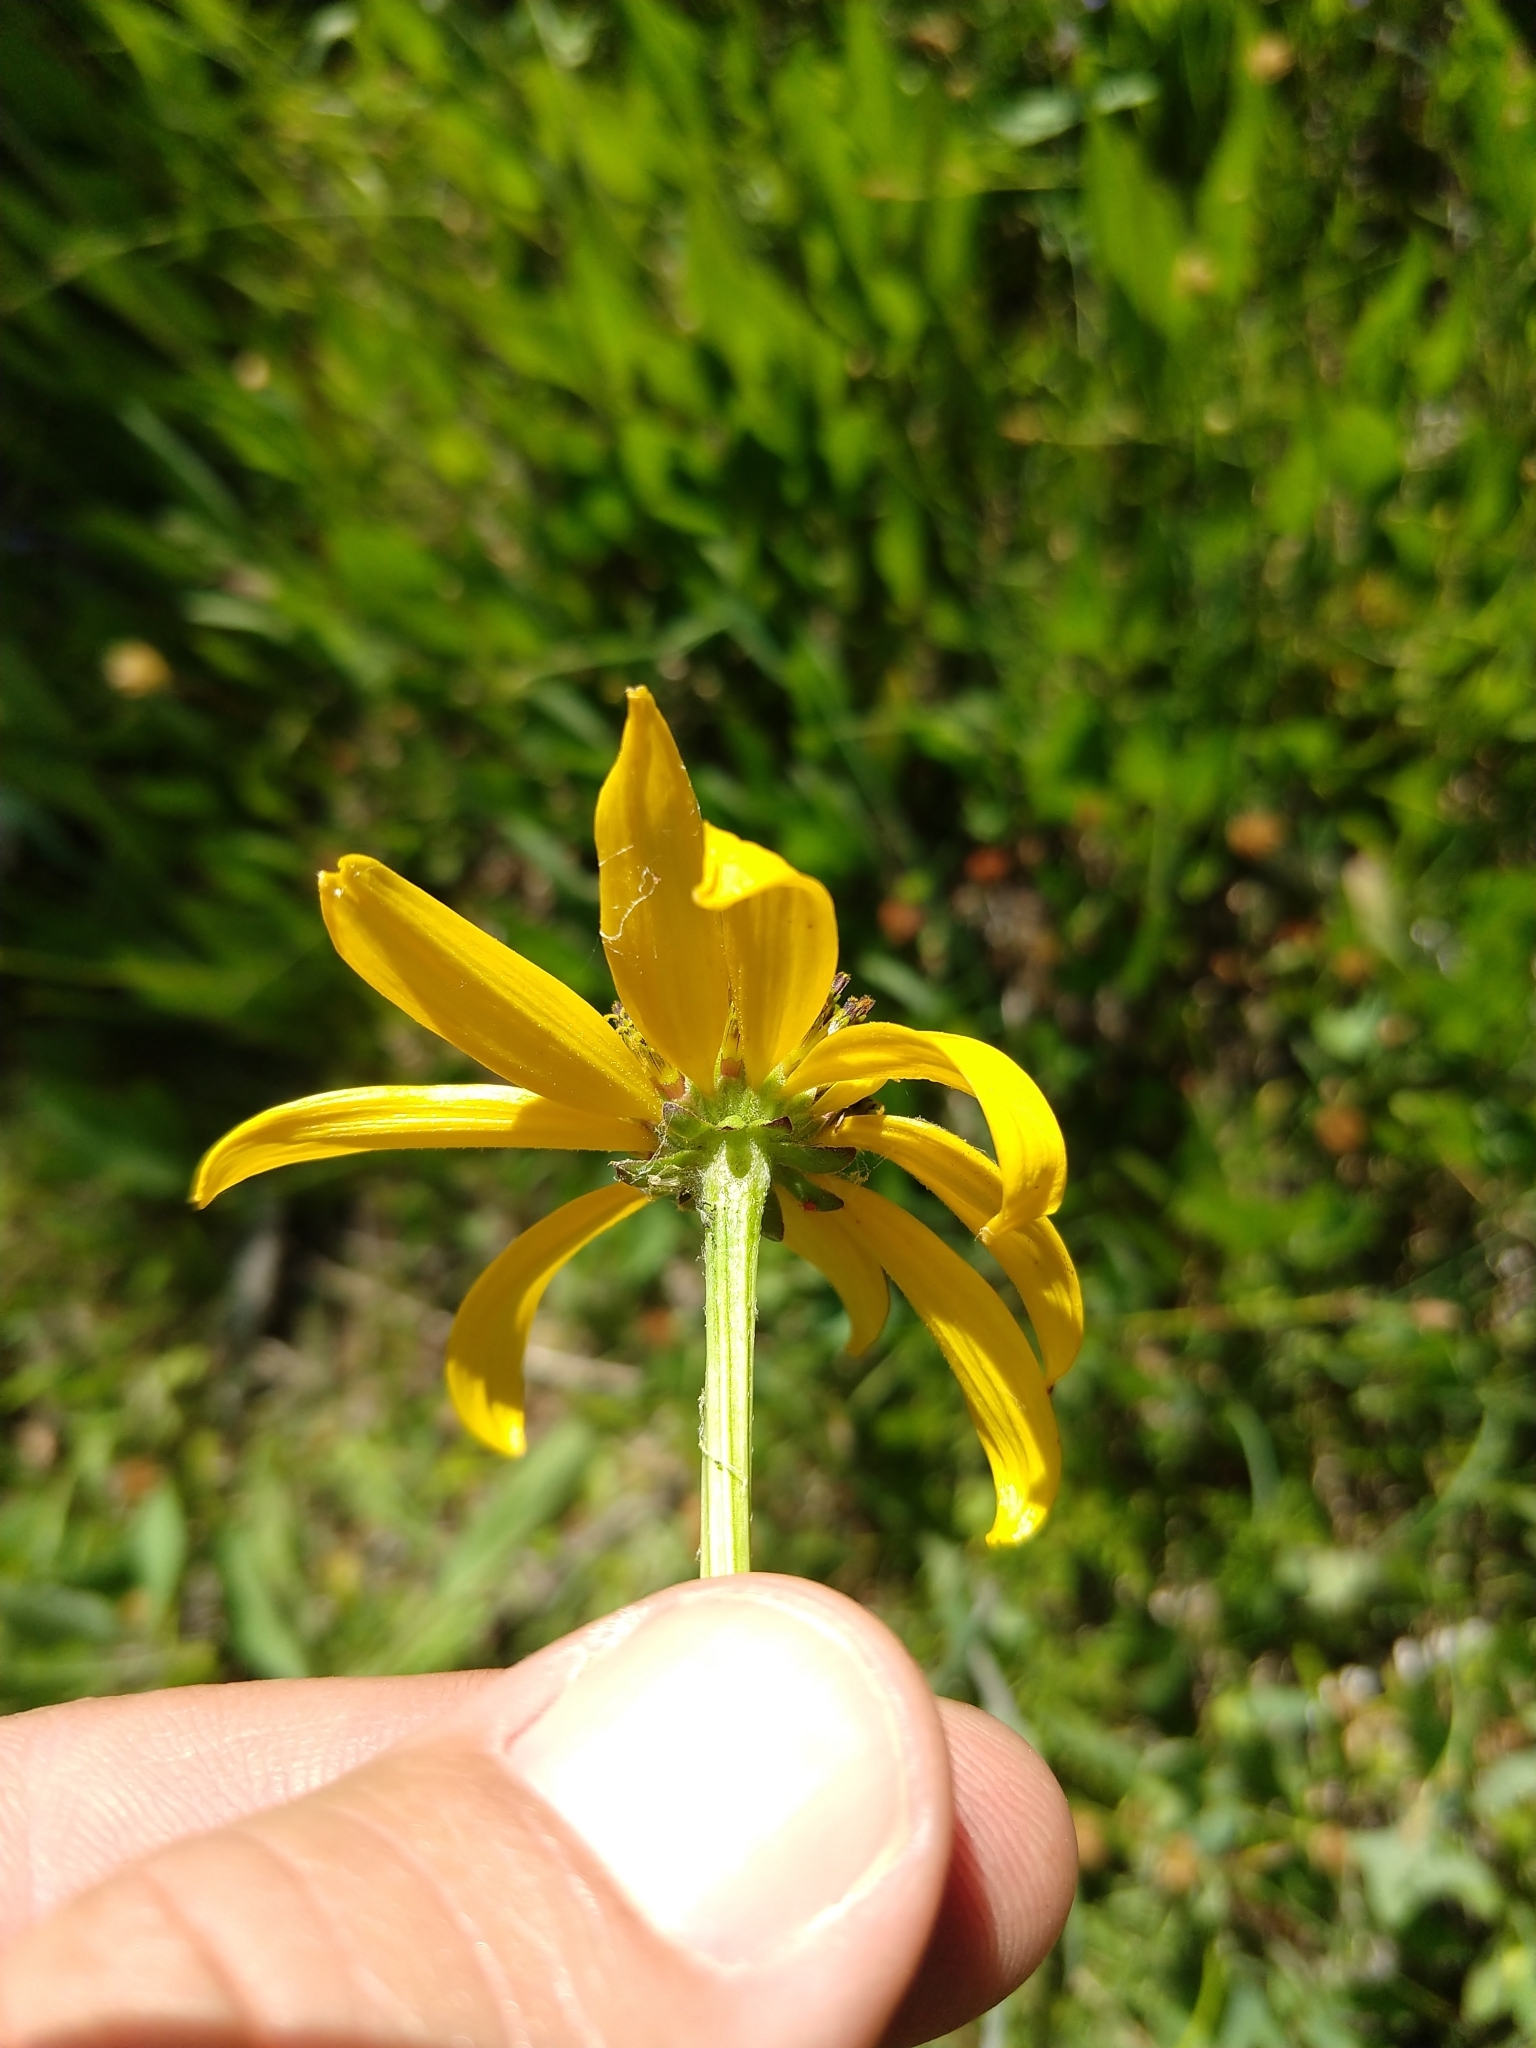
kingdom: Plantae
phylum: Tracheophyta
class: Magnoliopsida
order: Asterales
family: Asteraceae
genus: Rudbeckia
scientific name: Rudbeckia klamathensis
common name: Klamath coneflower
